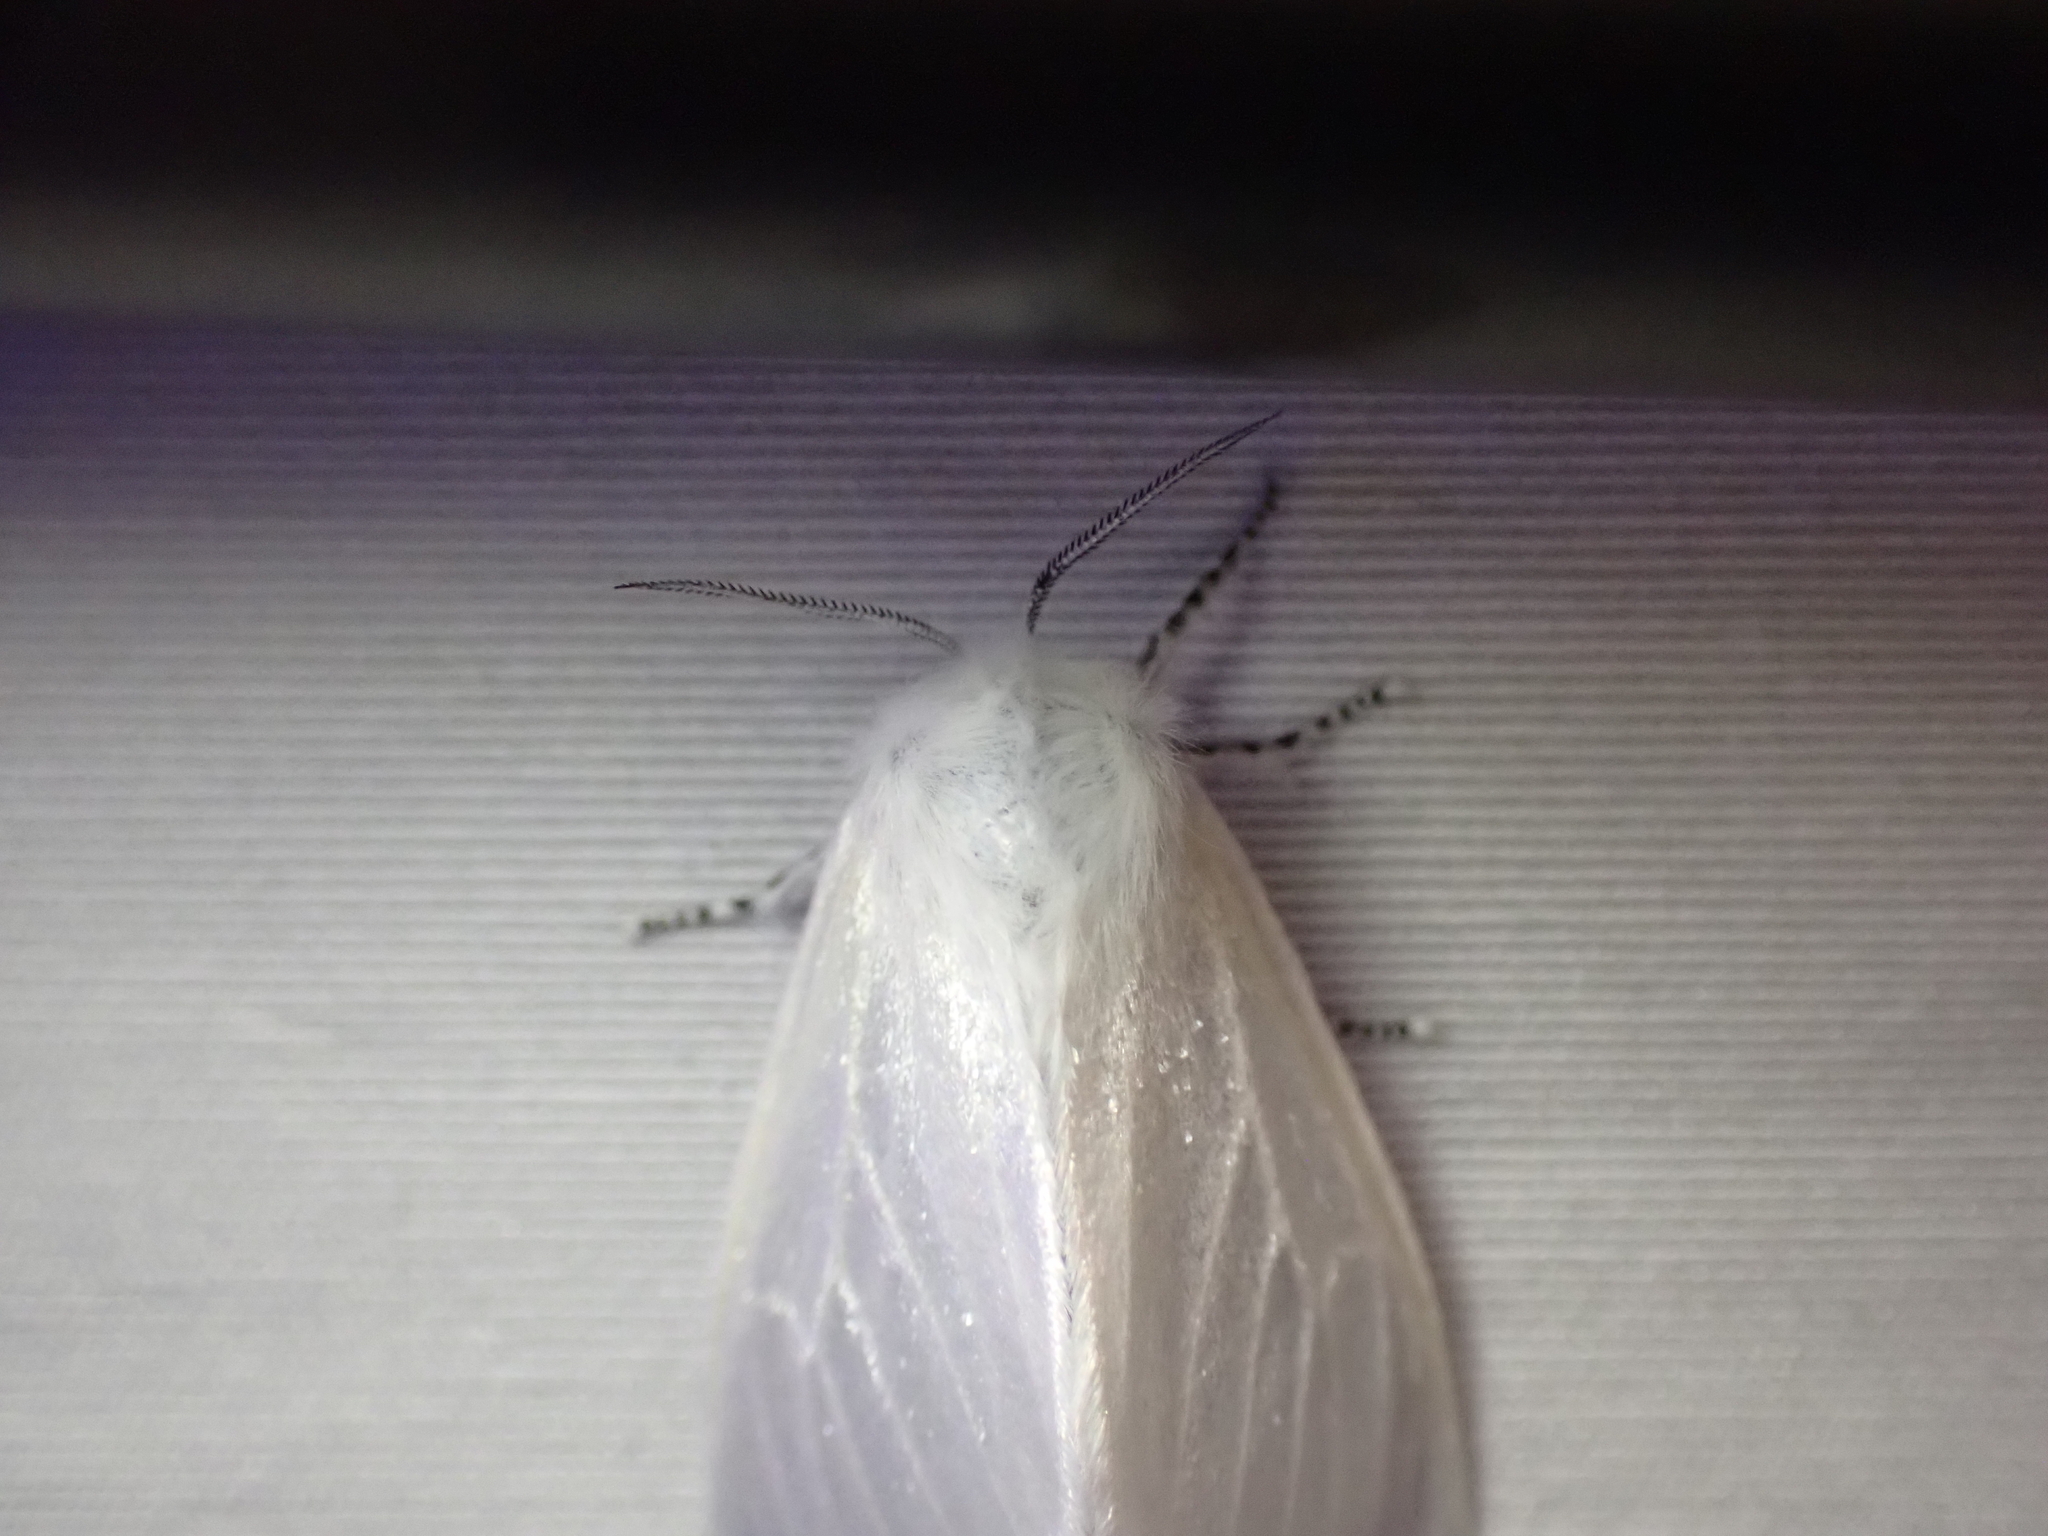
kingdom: Animalia
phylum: Arthropoda
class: Insecta
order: Lepidoptera
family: Erebidae
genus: Leucoma
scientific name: Leucoma salicis
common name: White satin moth
